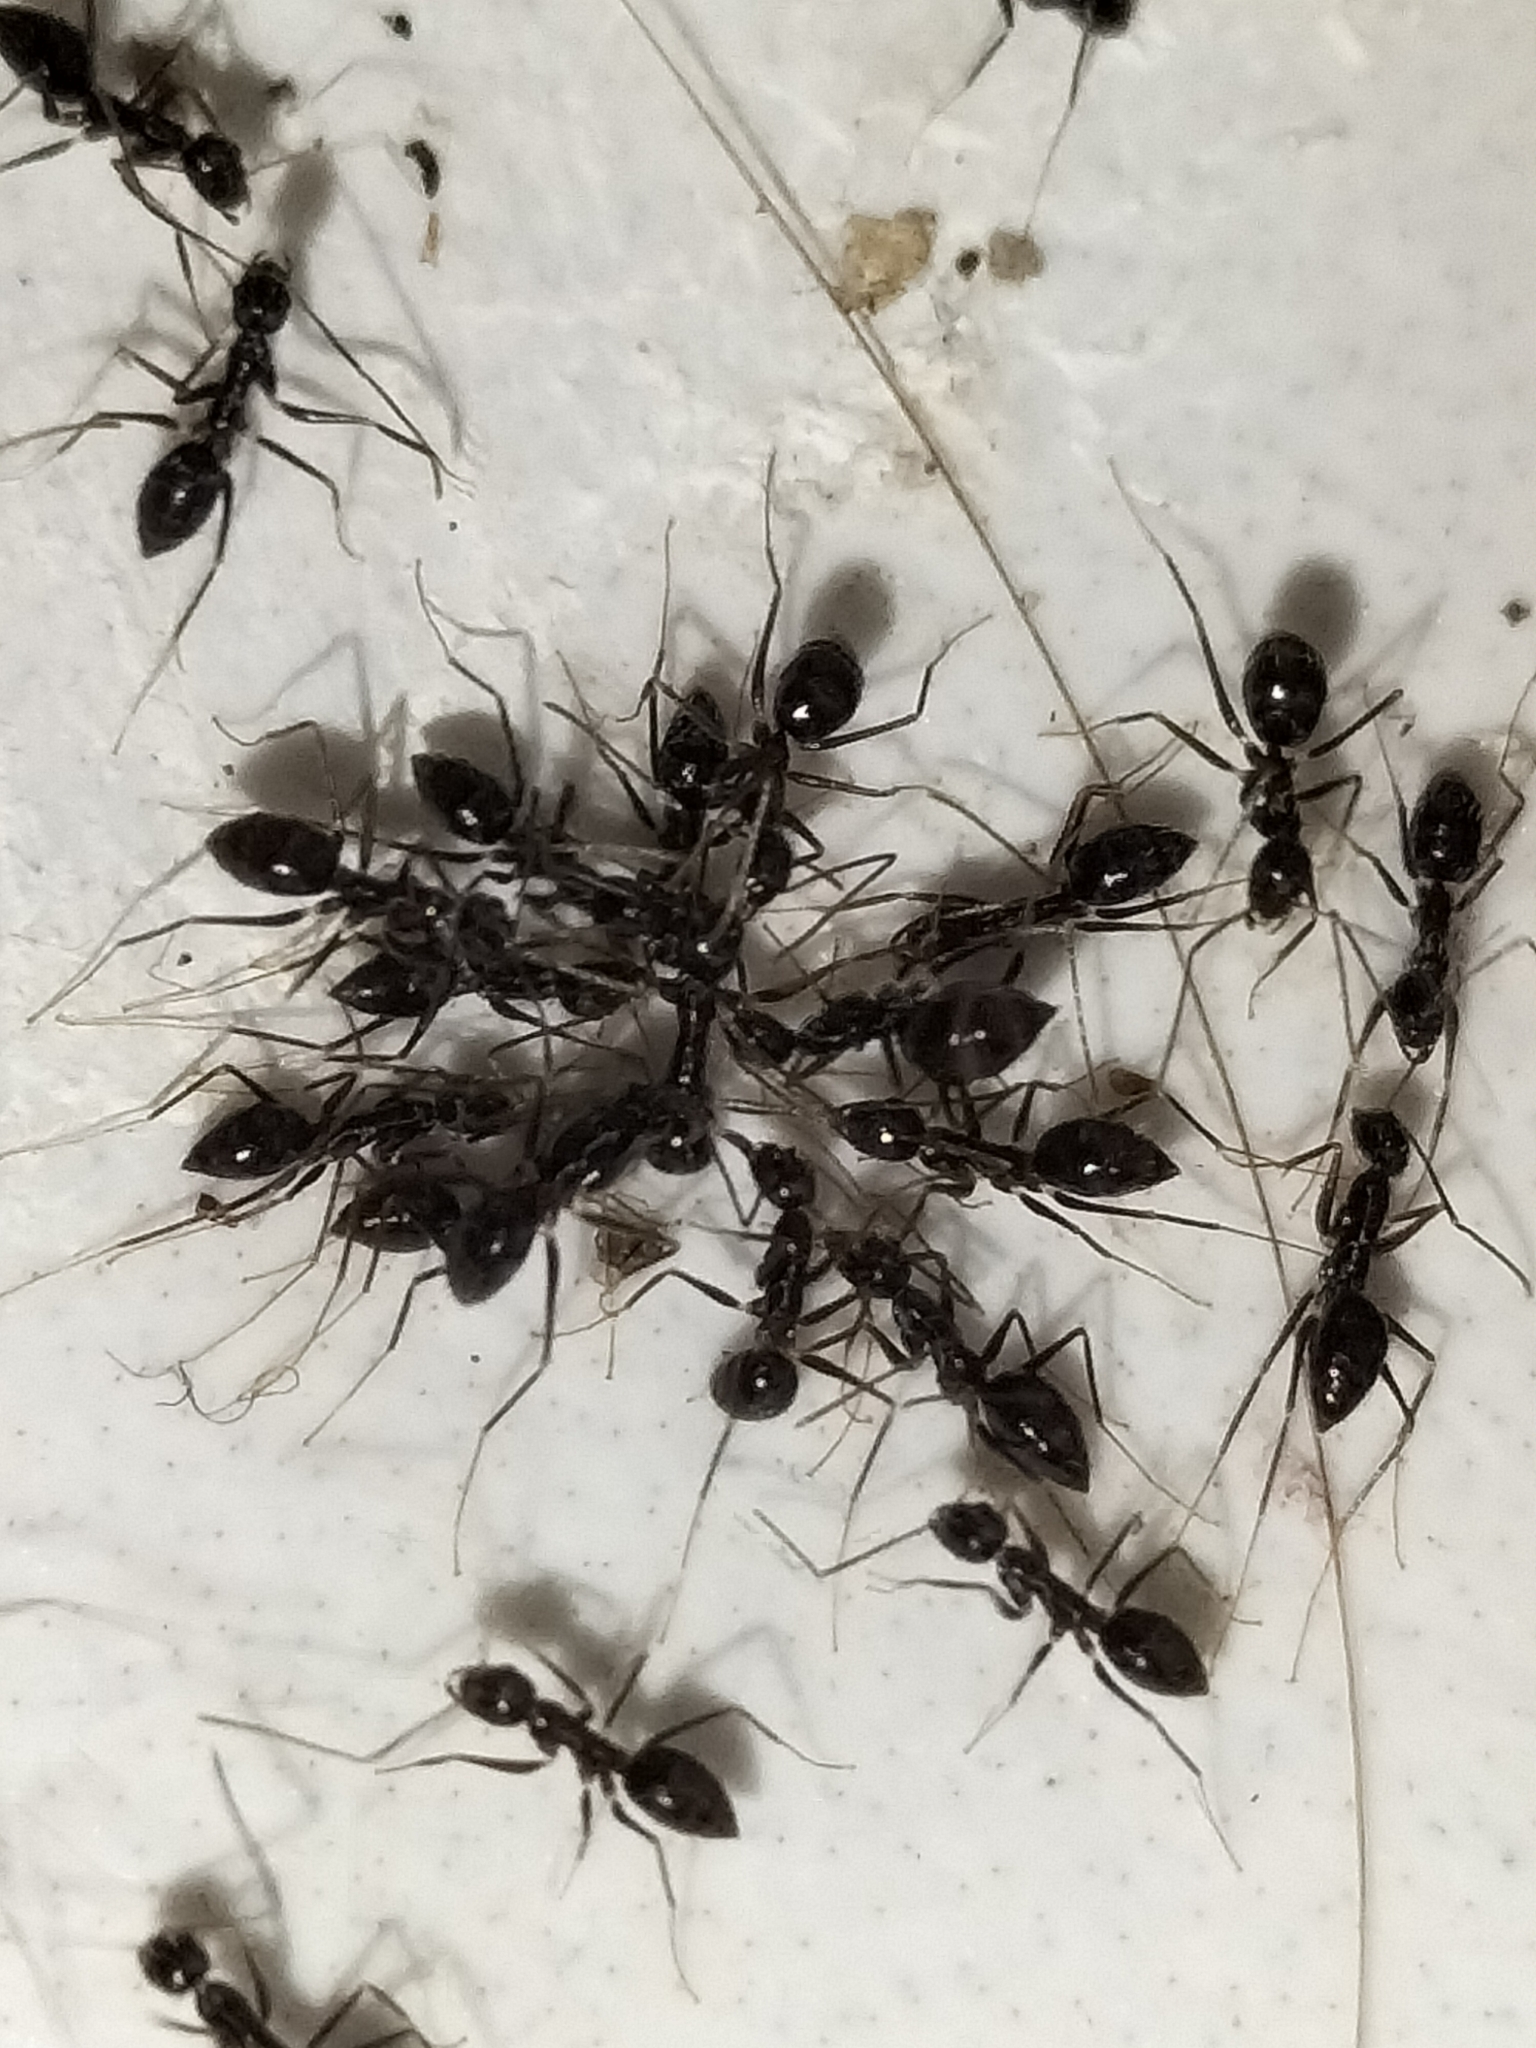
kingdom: Animalia
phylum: Arthropoda
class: Insecta
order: Hymenoptera
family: Formicidae
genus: Paratrechina
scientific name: Paratrechina longicornis
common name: Longhorned crazy ant
